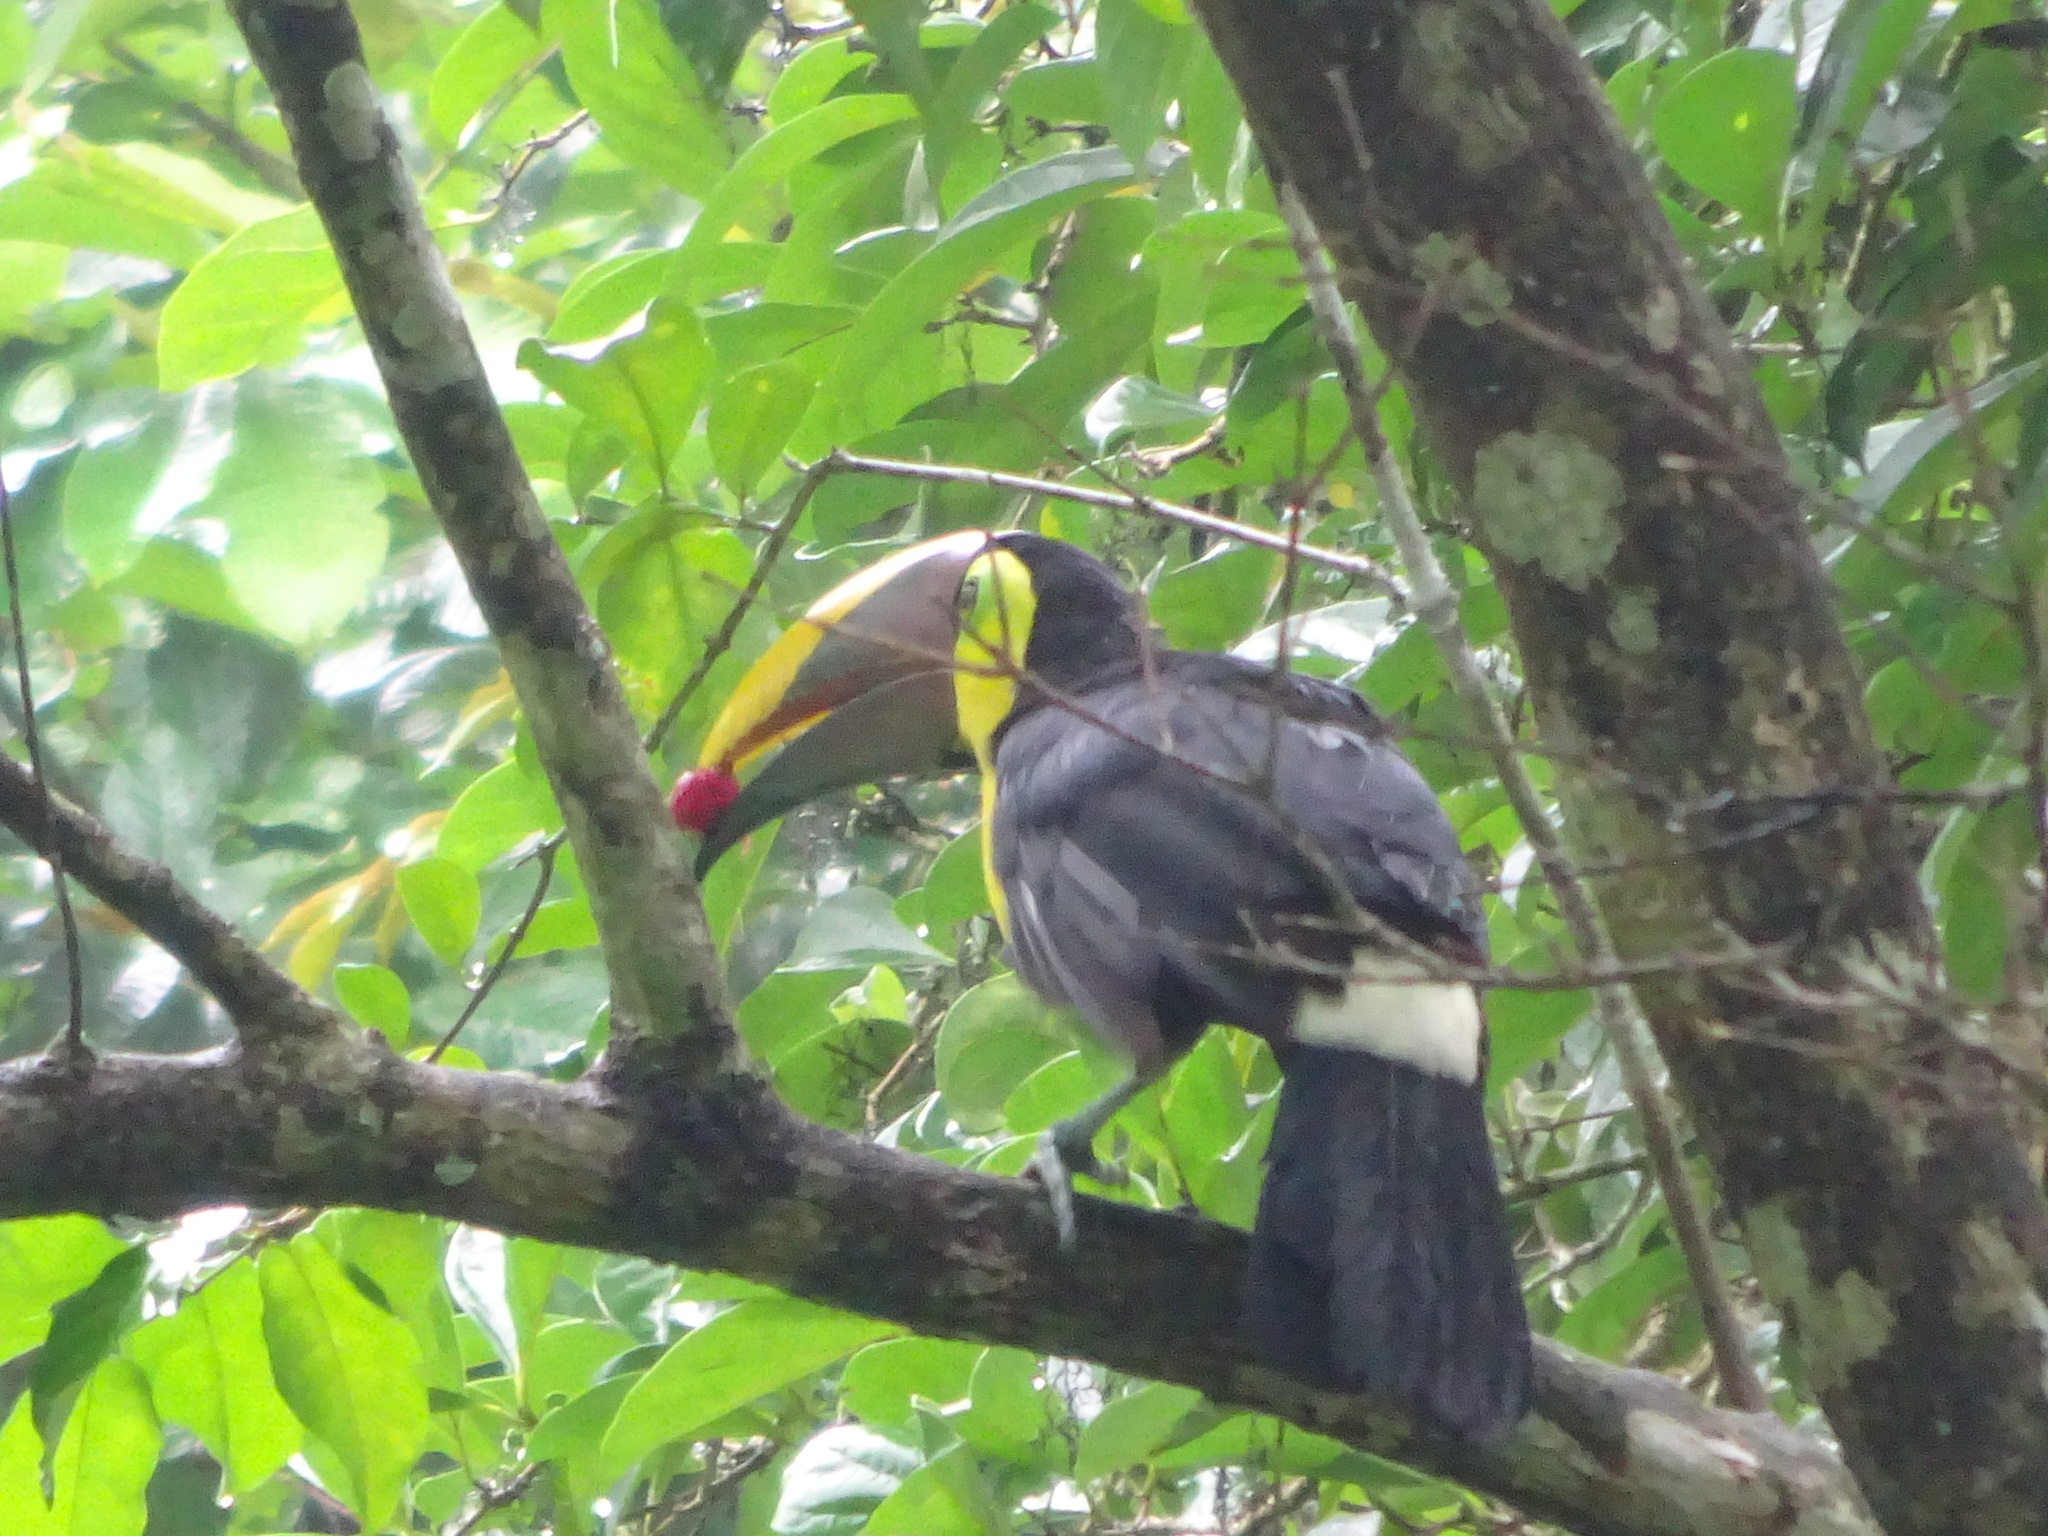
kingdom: Animalia
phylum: Chordata
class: Aves
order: Piciformes
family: Ramphastidae
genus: Ramphastos
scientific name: Ramphastos ambiguus
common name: Yellow-throated toucan
